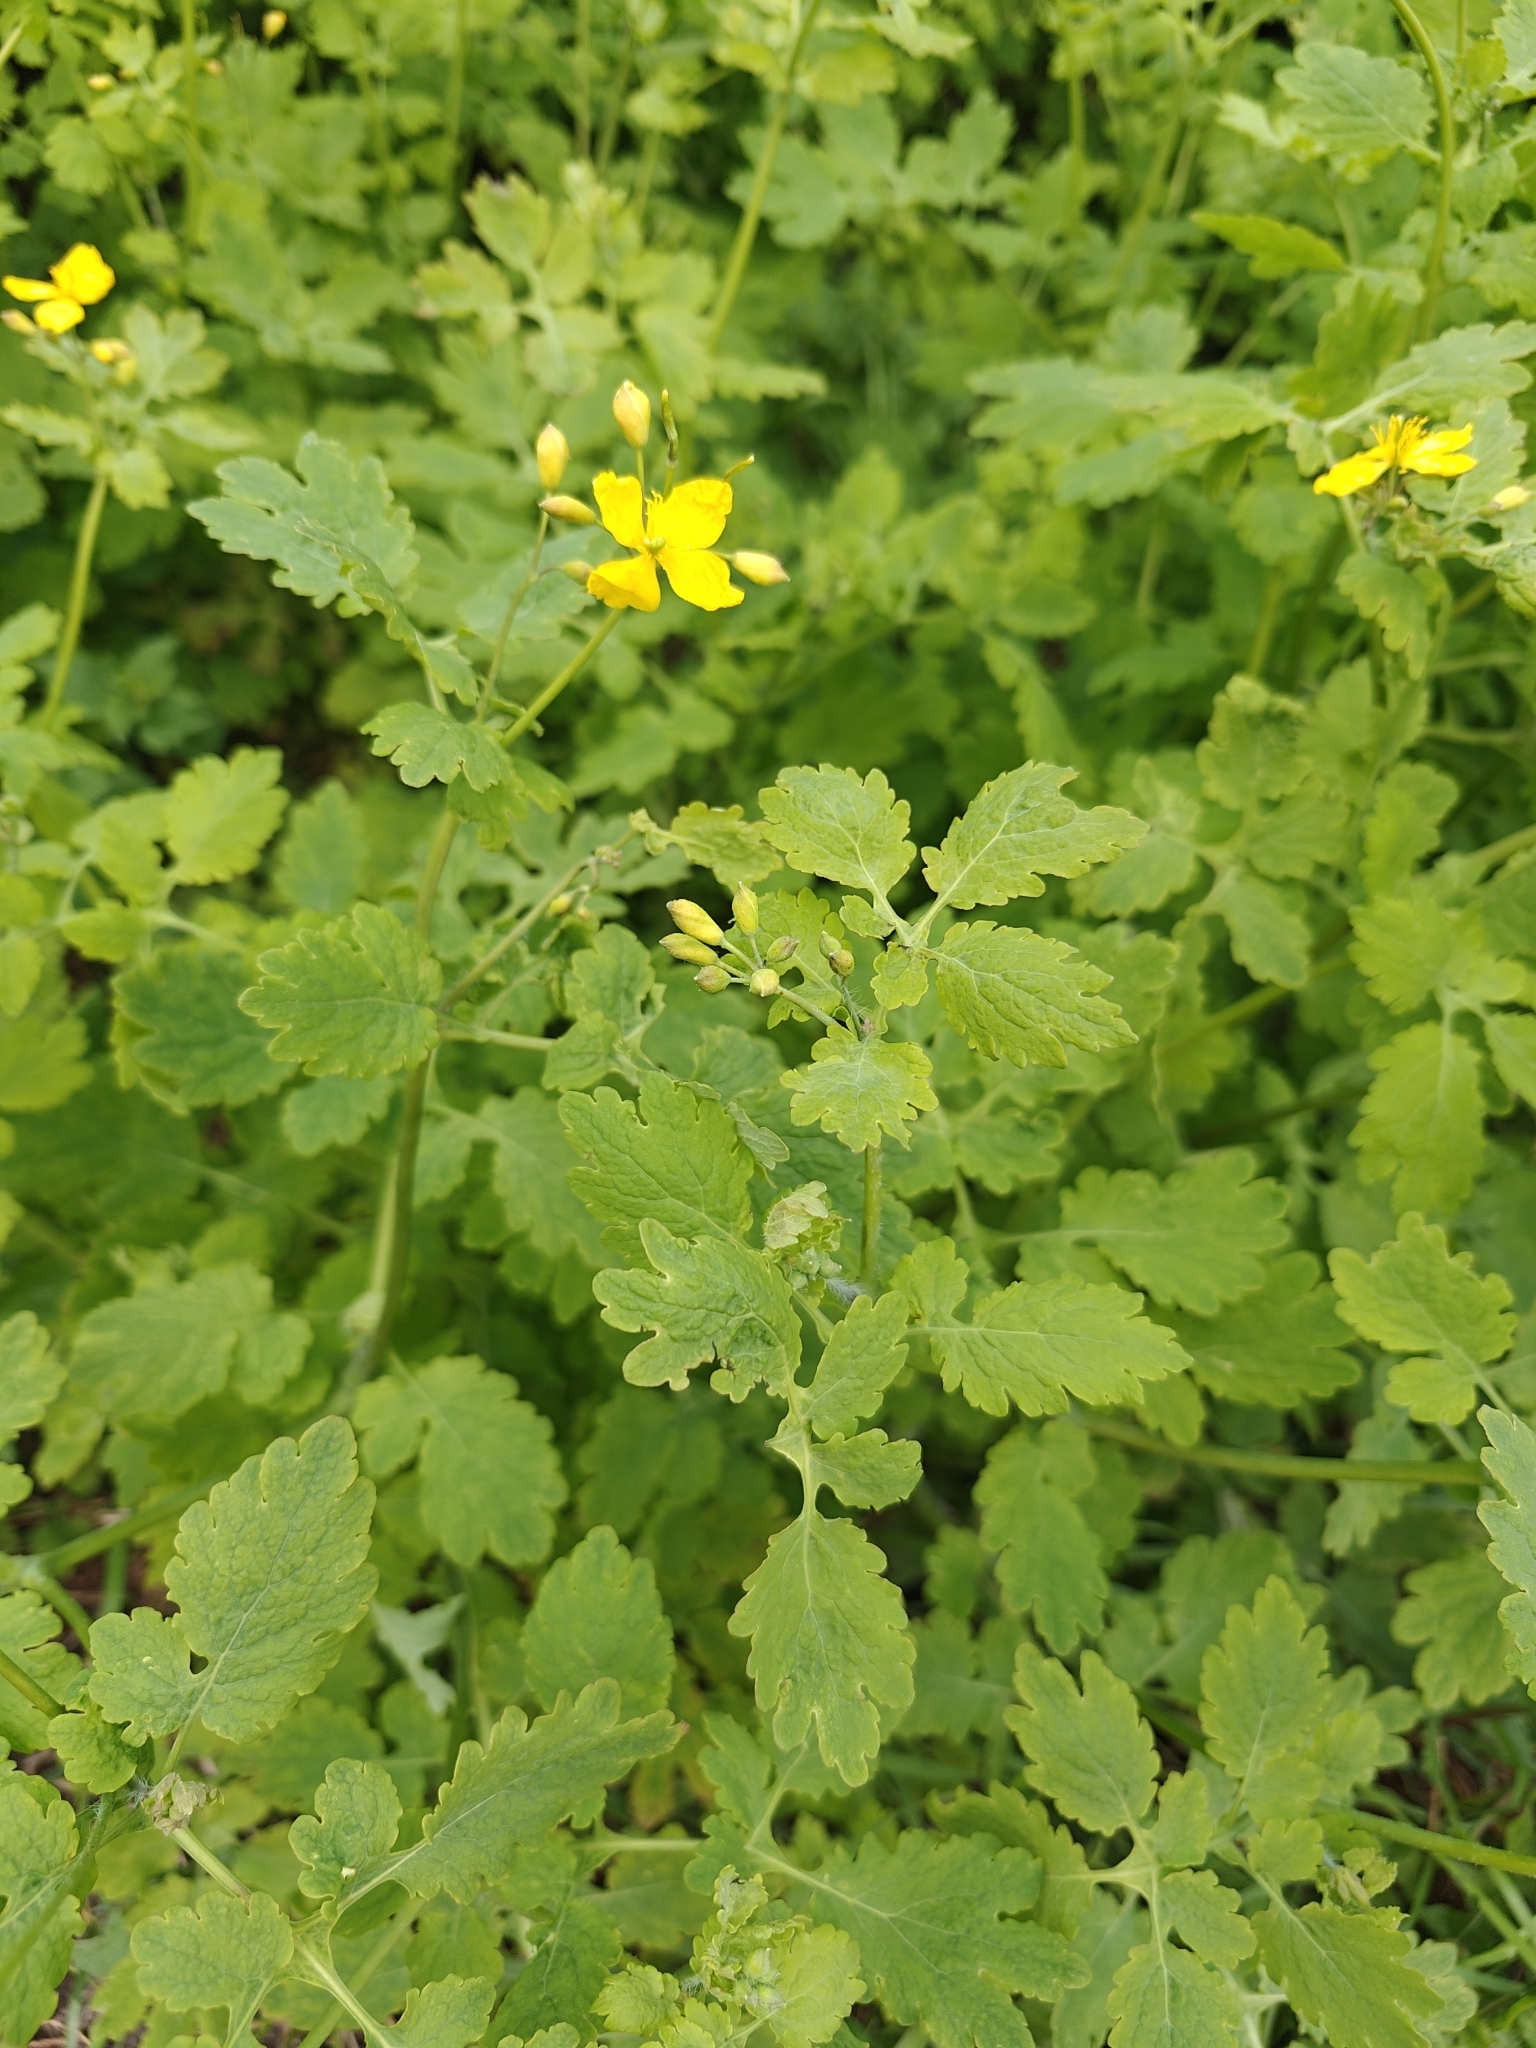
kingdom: Plantae
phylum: Tracheophyta
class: Magnoliopsida
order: Ranunculales
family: Papaveraceae
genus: Chelidonium
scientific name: Chelidonium majus
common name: Greater celandine
